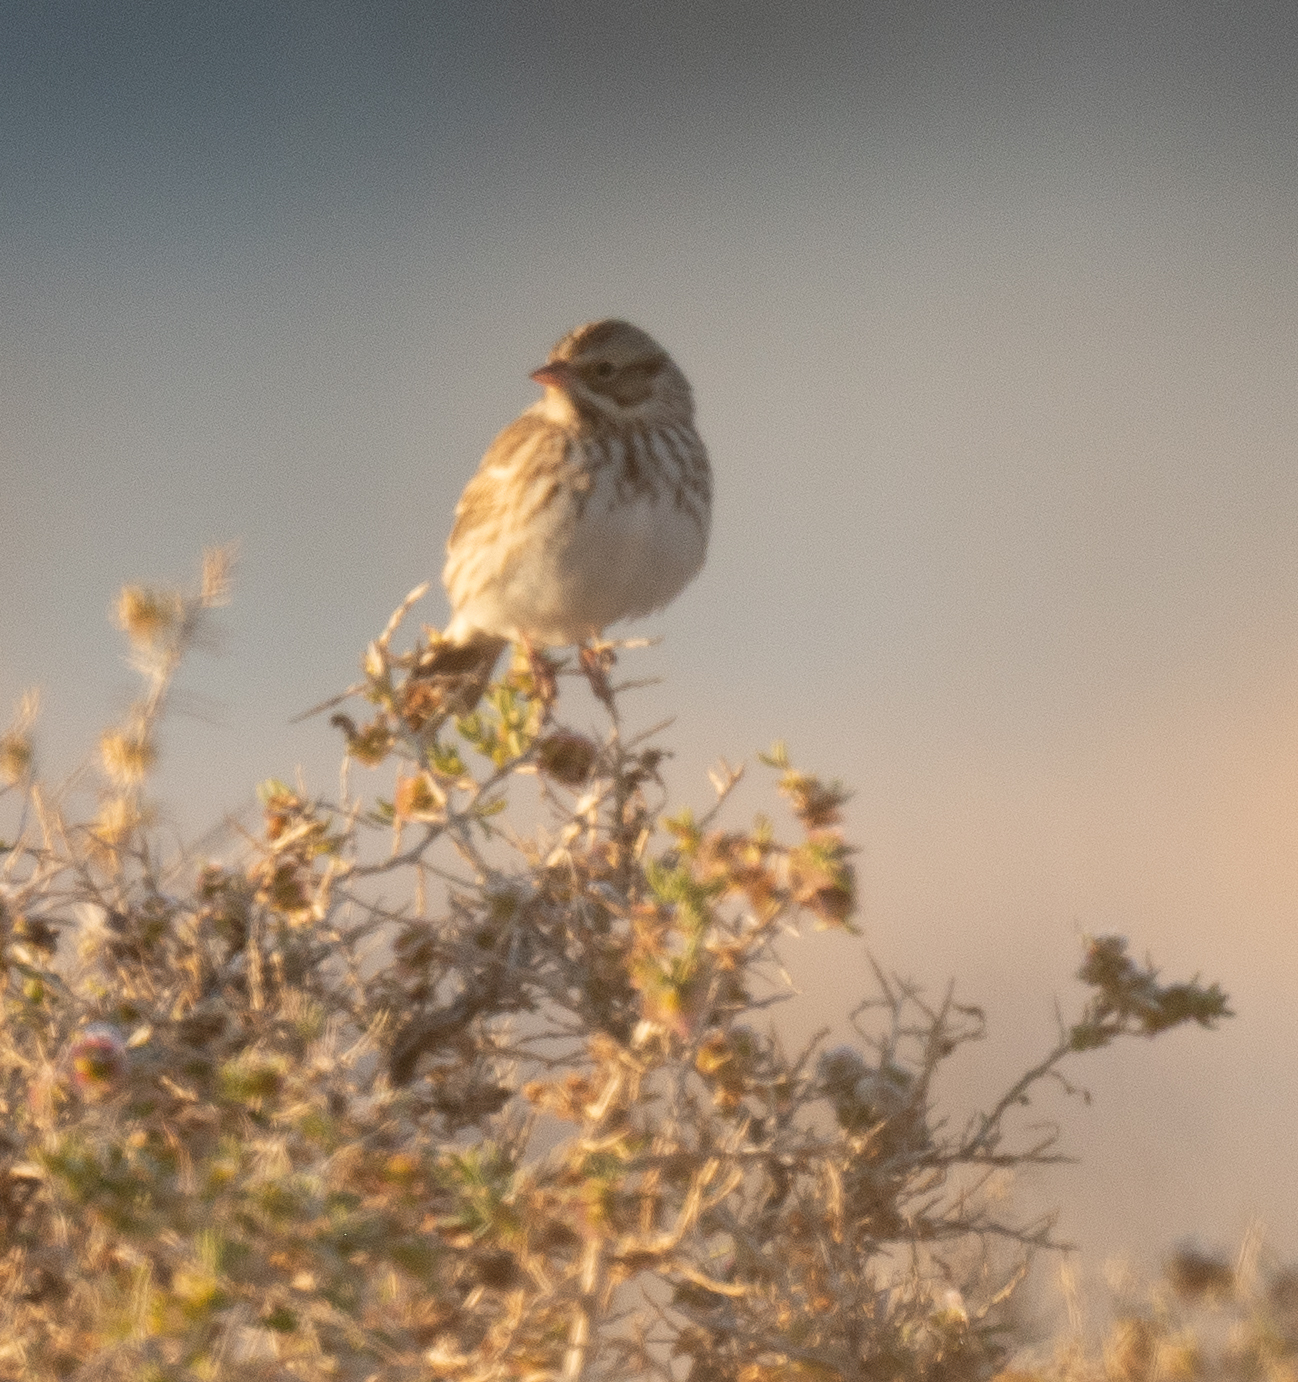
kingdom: Animalia
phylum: Chordata
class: Aves
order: Passeriformes
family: Passerellidae
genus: Passerculus
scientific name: Passerculus sandwichensis
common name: Savannah sparrow
